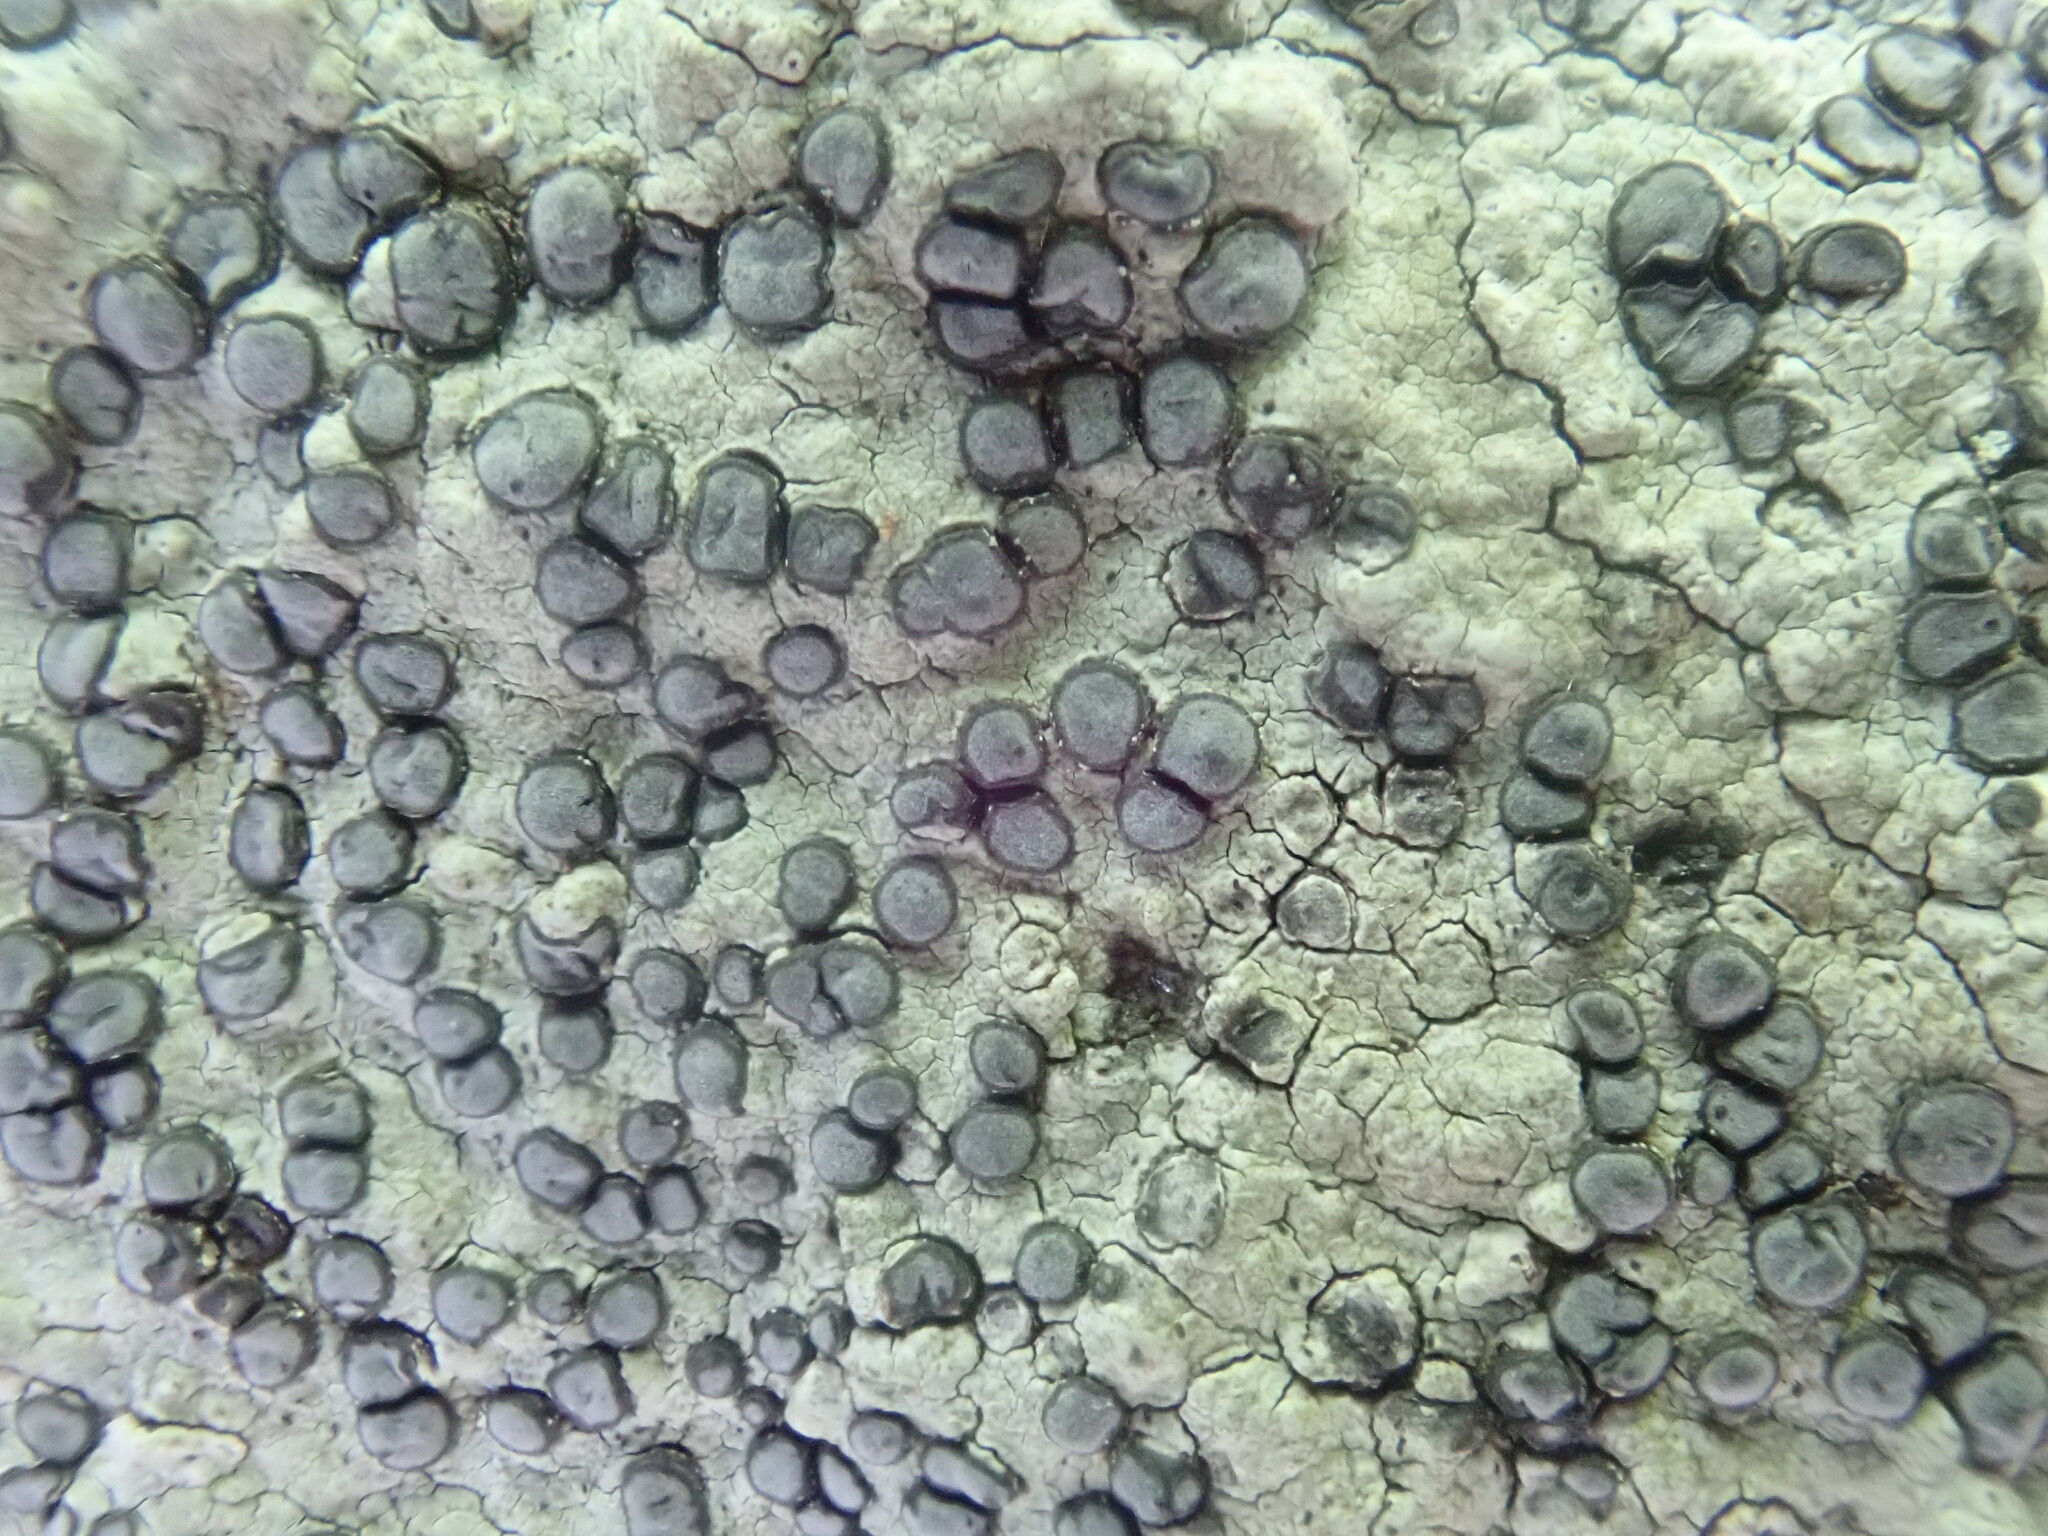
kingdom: Fungi
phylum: Ascomycota
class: Lecanoromycetes
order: Lecideales
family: Lecideaceae
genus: Porpidia
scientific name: Porpidia albocaerulescens
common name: Smokey-eyed boulder lichen
